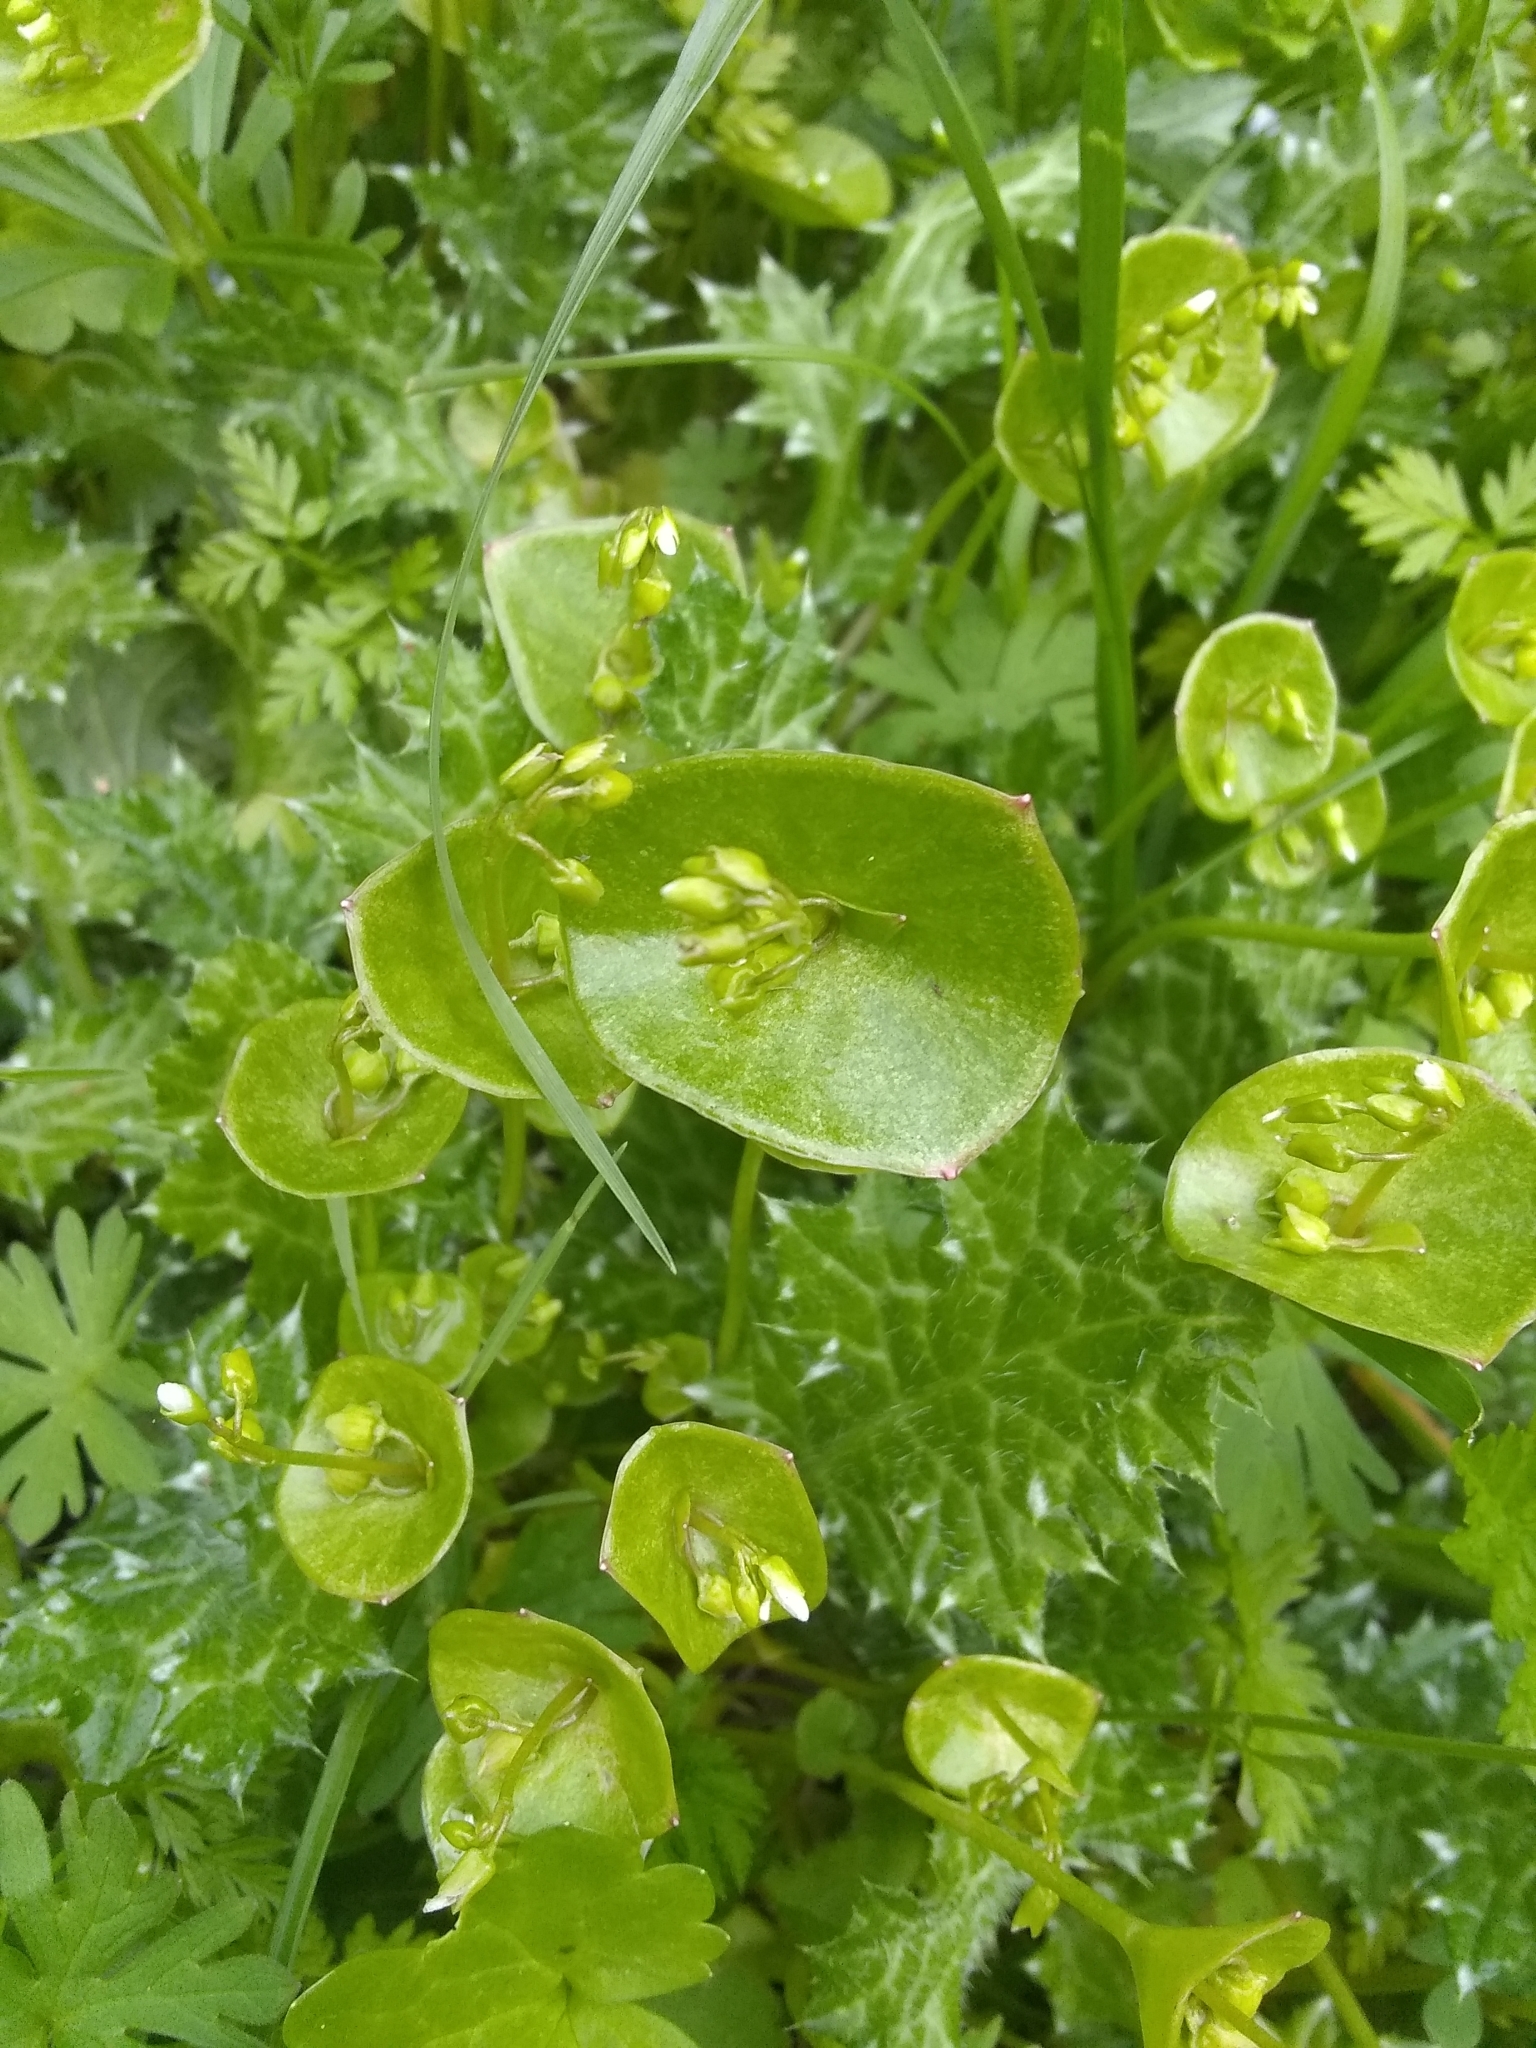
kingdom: Plantae
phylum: Tracheophyta
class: Magnoliopsida
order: Caryophyllales
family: Montiaceae
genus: Claytonia
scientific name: Claytonia perfoliata
